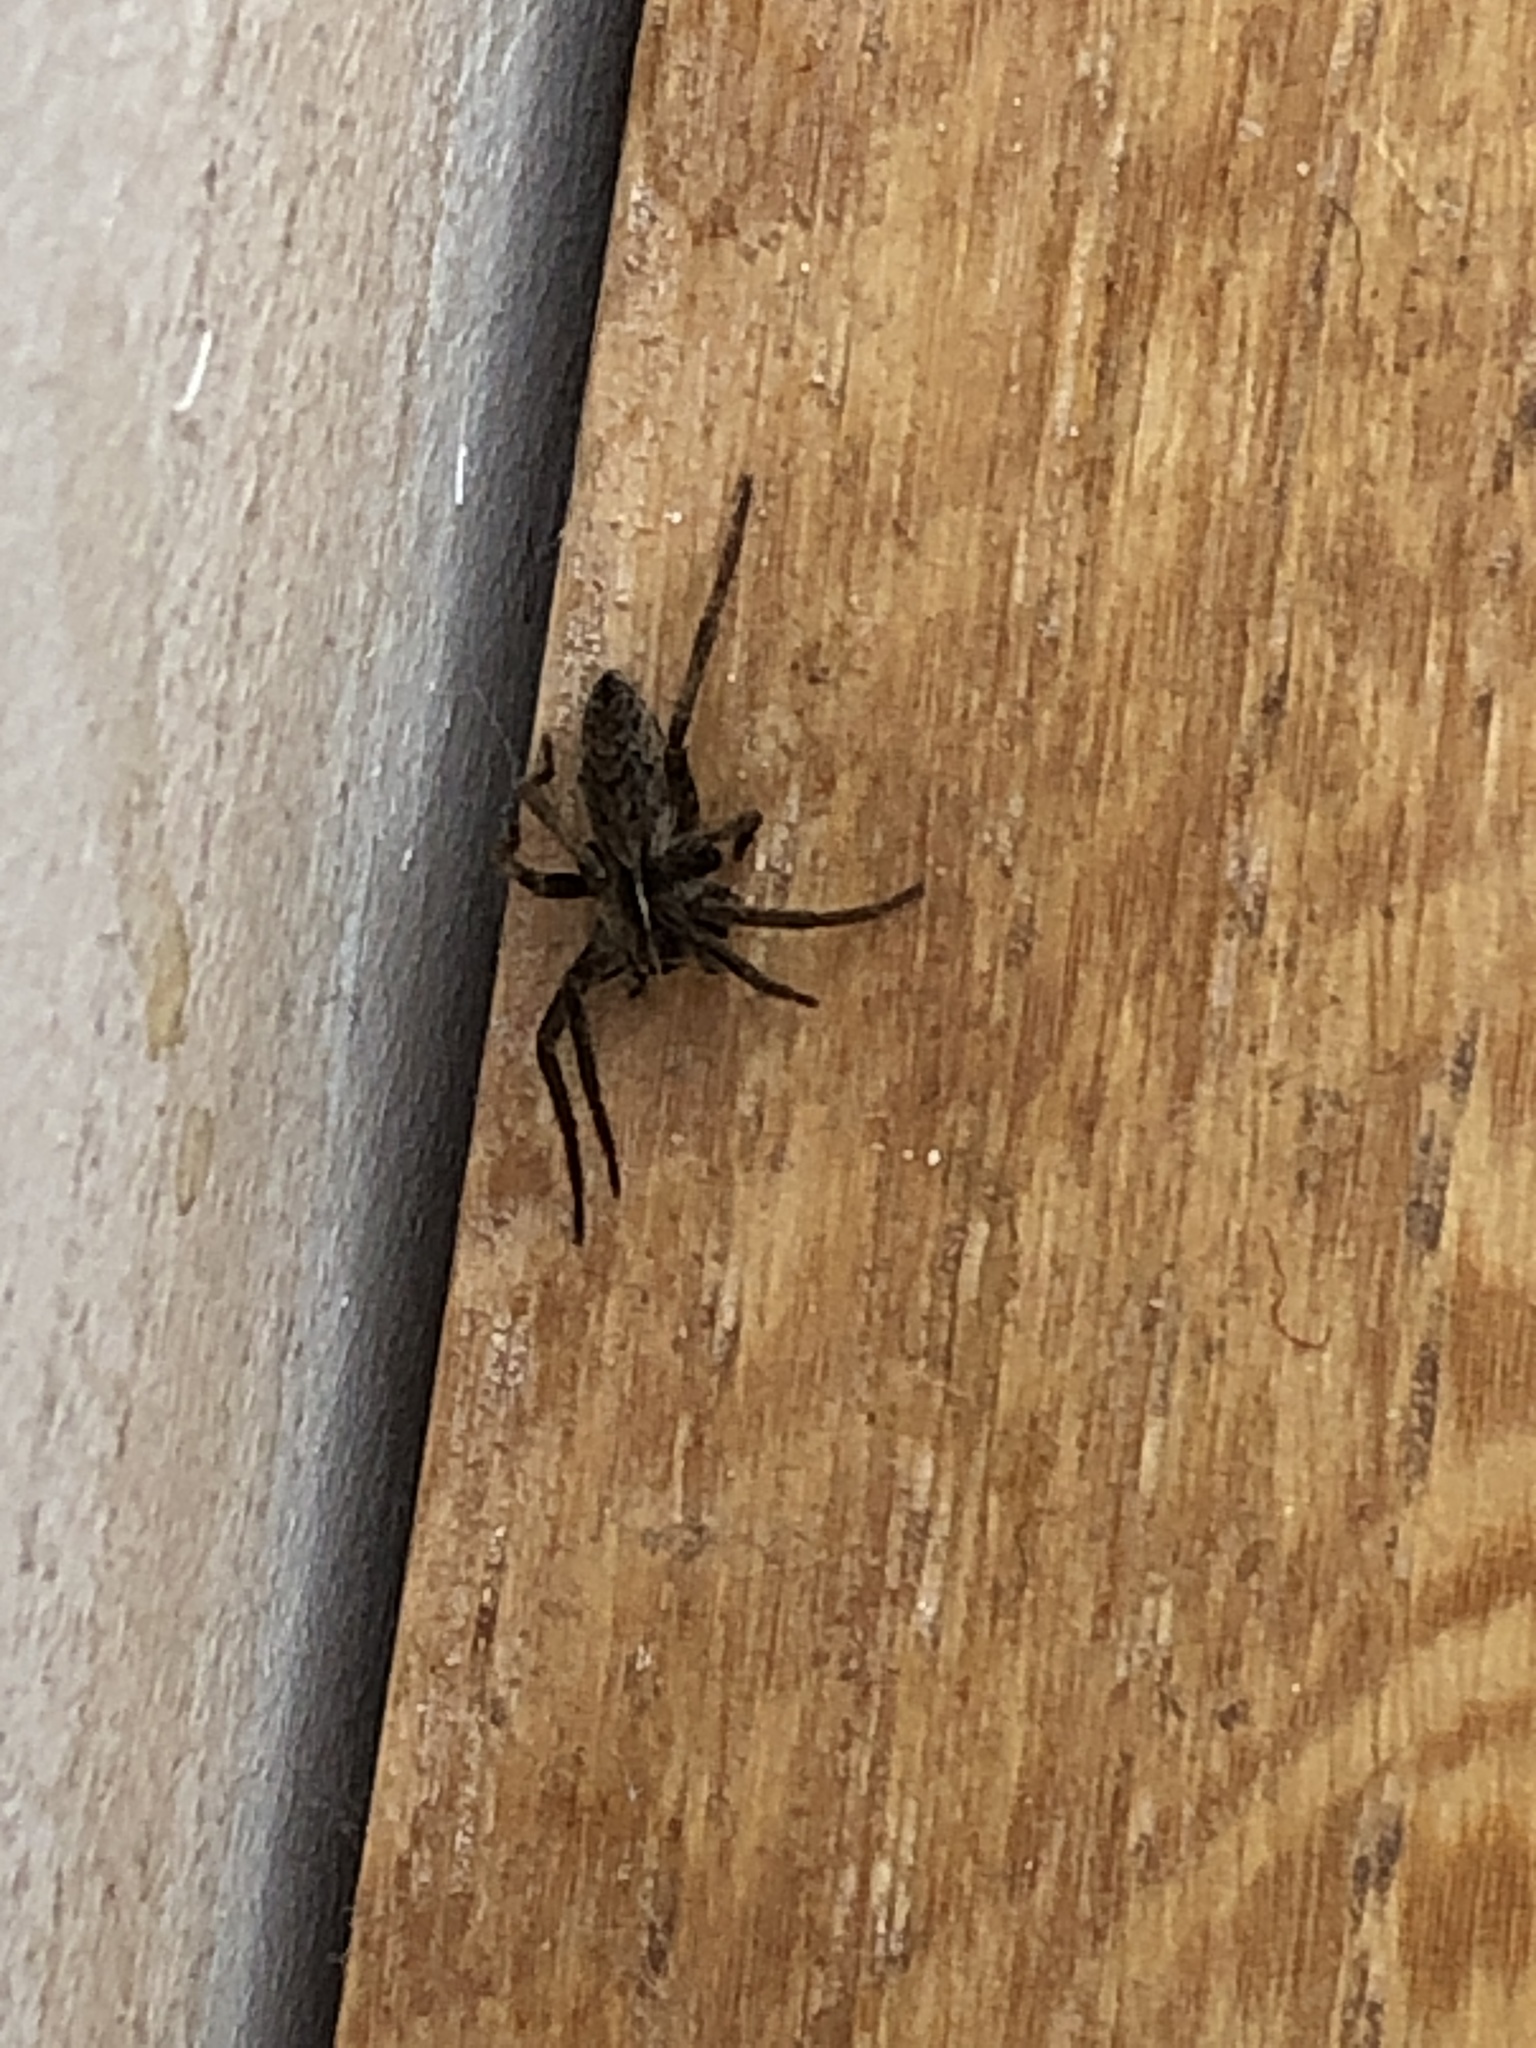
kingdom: Animalia
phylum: Arthropoda
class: Arachnida
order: Araneae
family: Pisauridae
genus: Pisaura
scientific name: Pisaura mirabilis
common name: Tent spider
